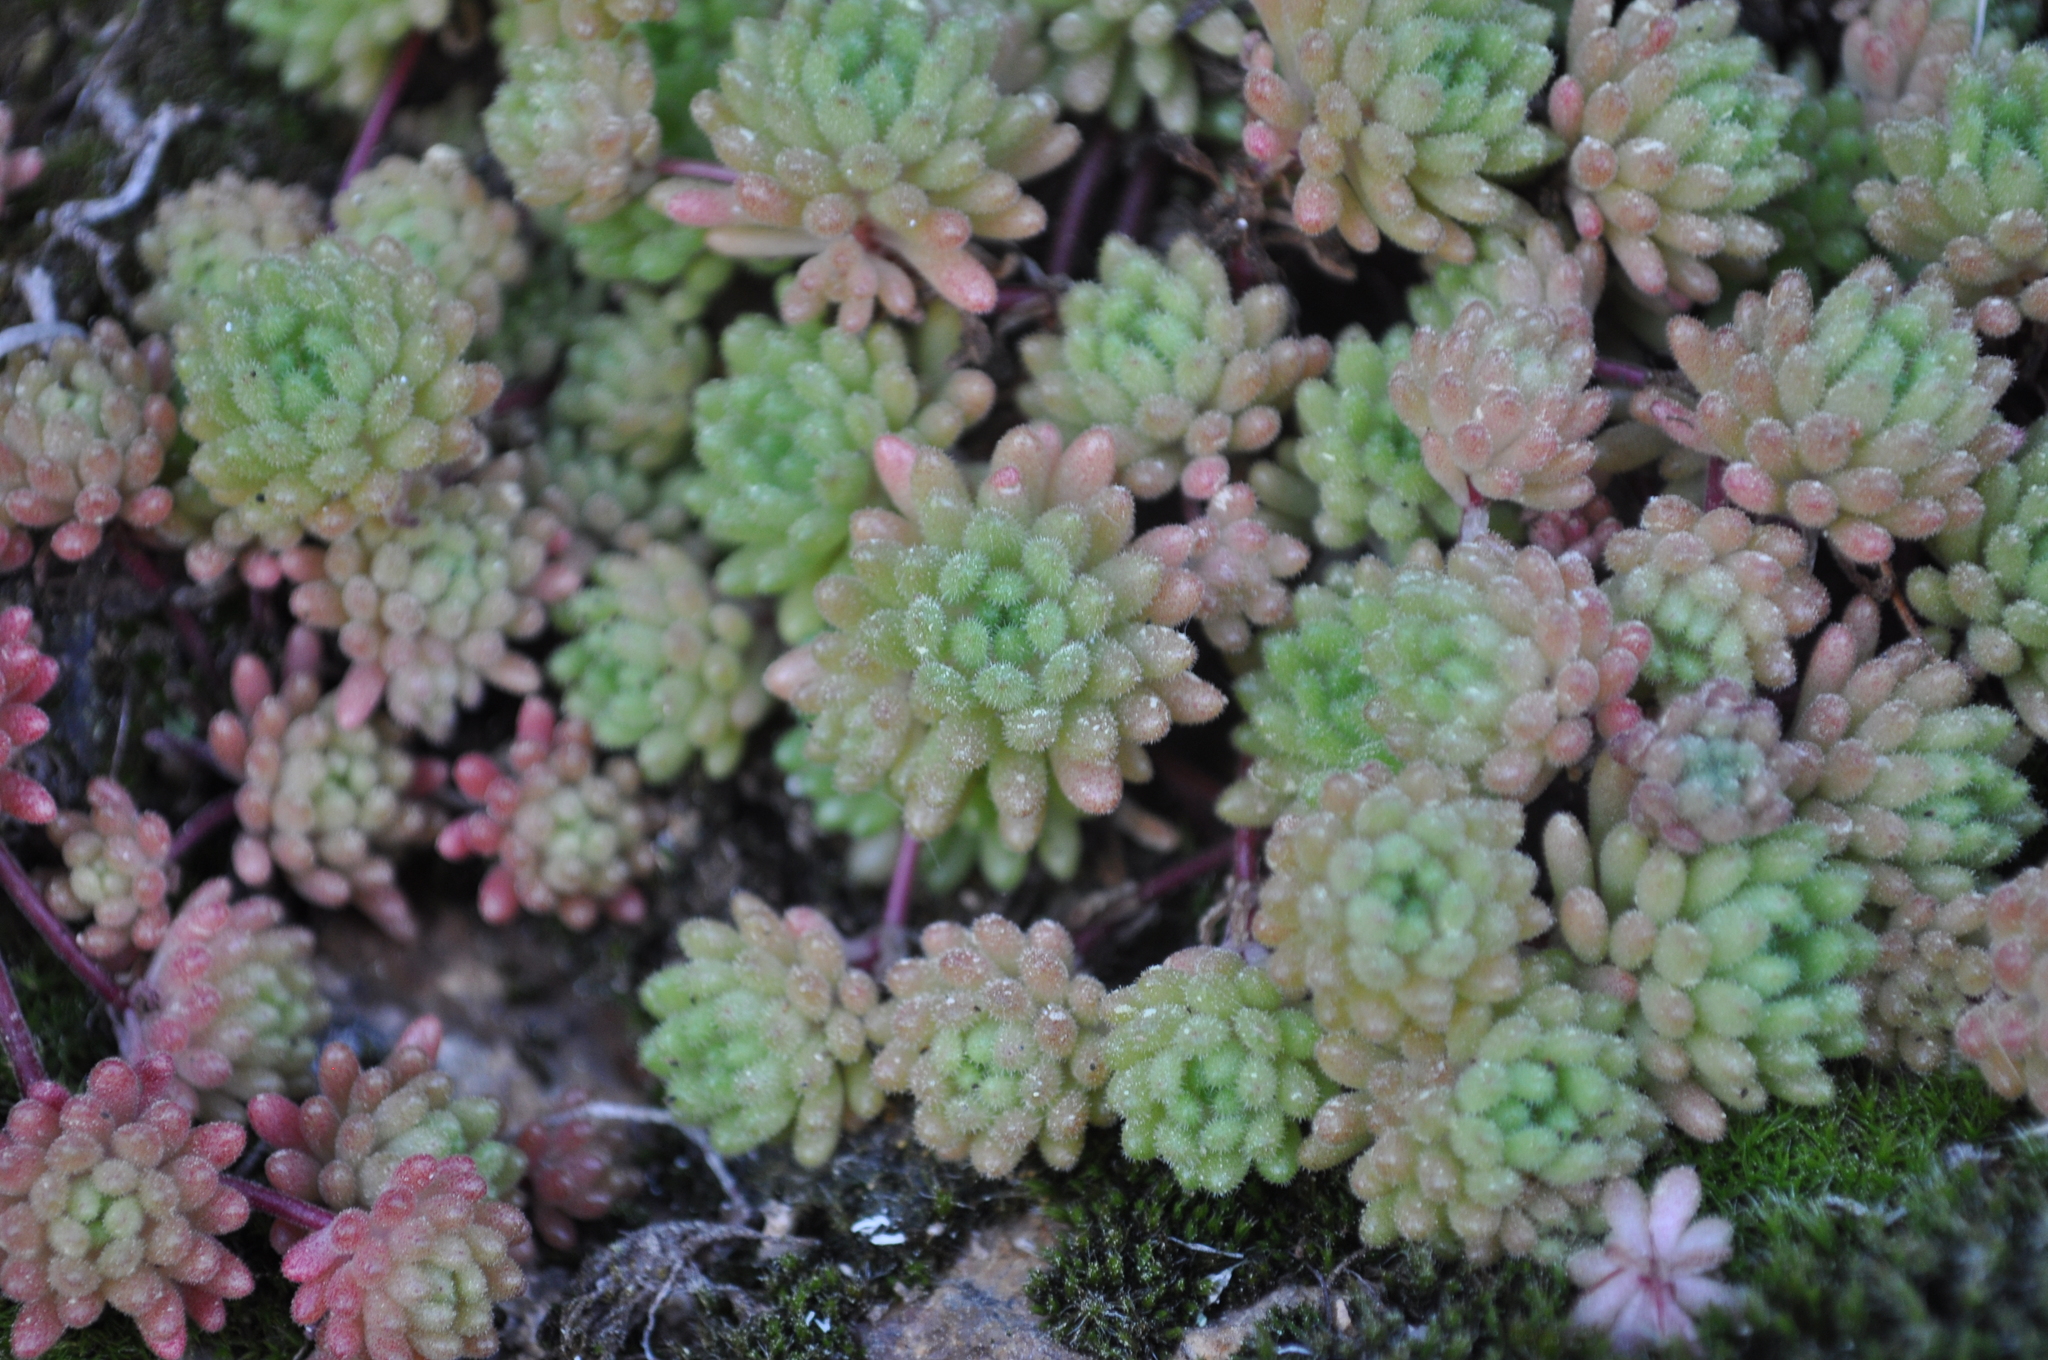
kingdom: Plantae
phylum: Tracheophyta
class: Magnoliopsida
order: Saxifragales
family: Crassulaceae
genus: Sedum
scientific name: Sedum hirsutum
